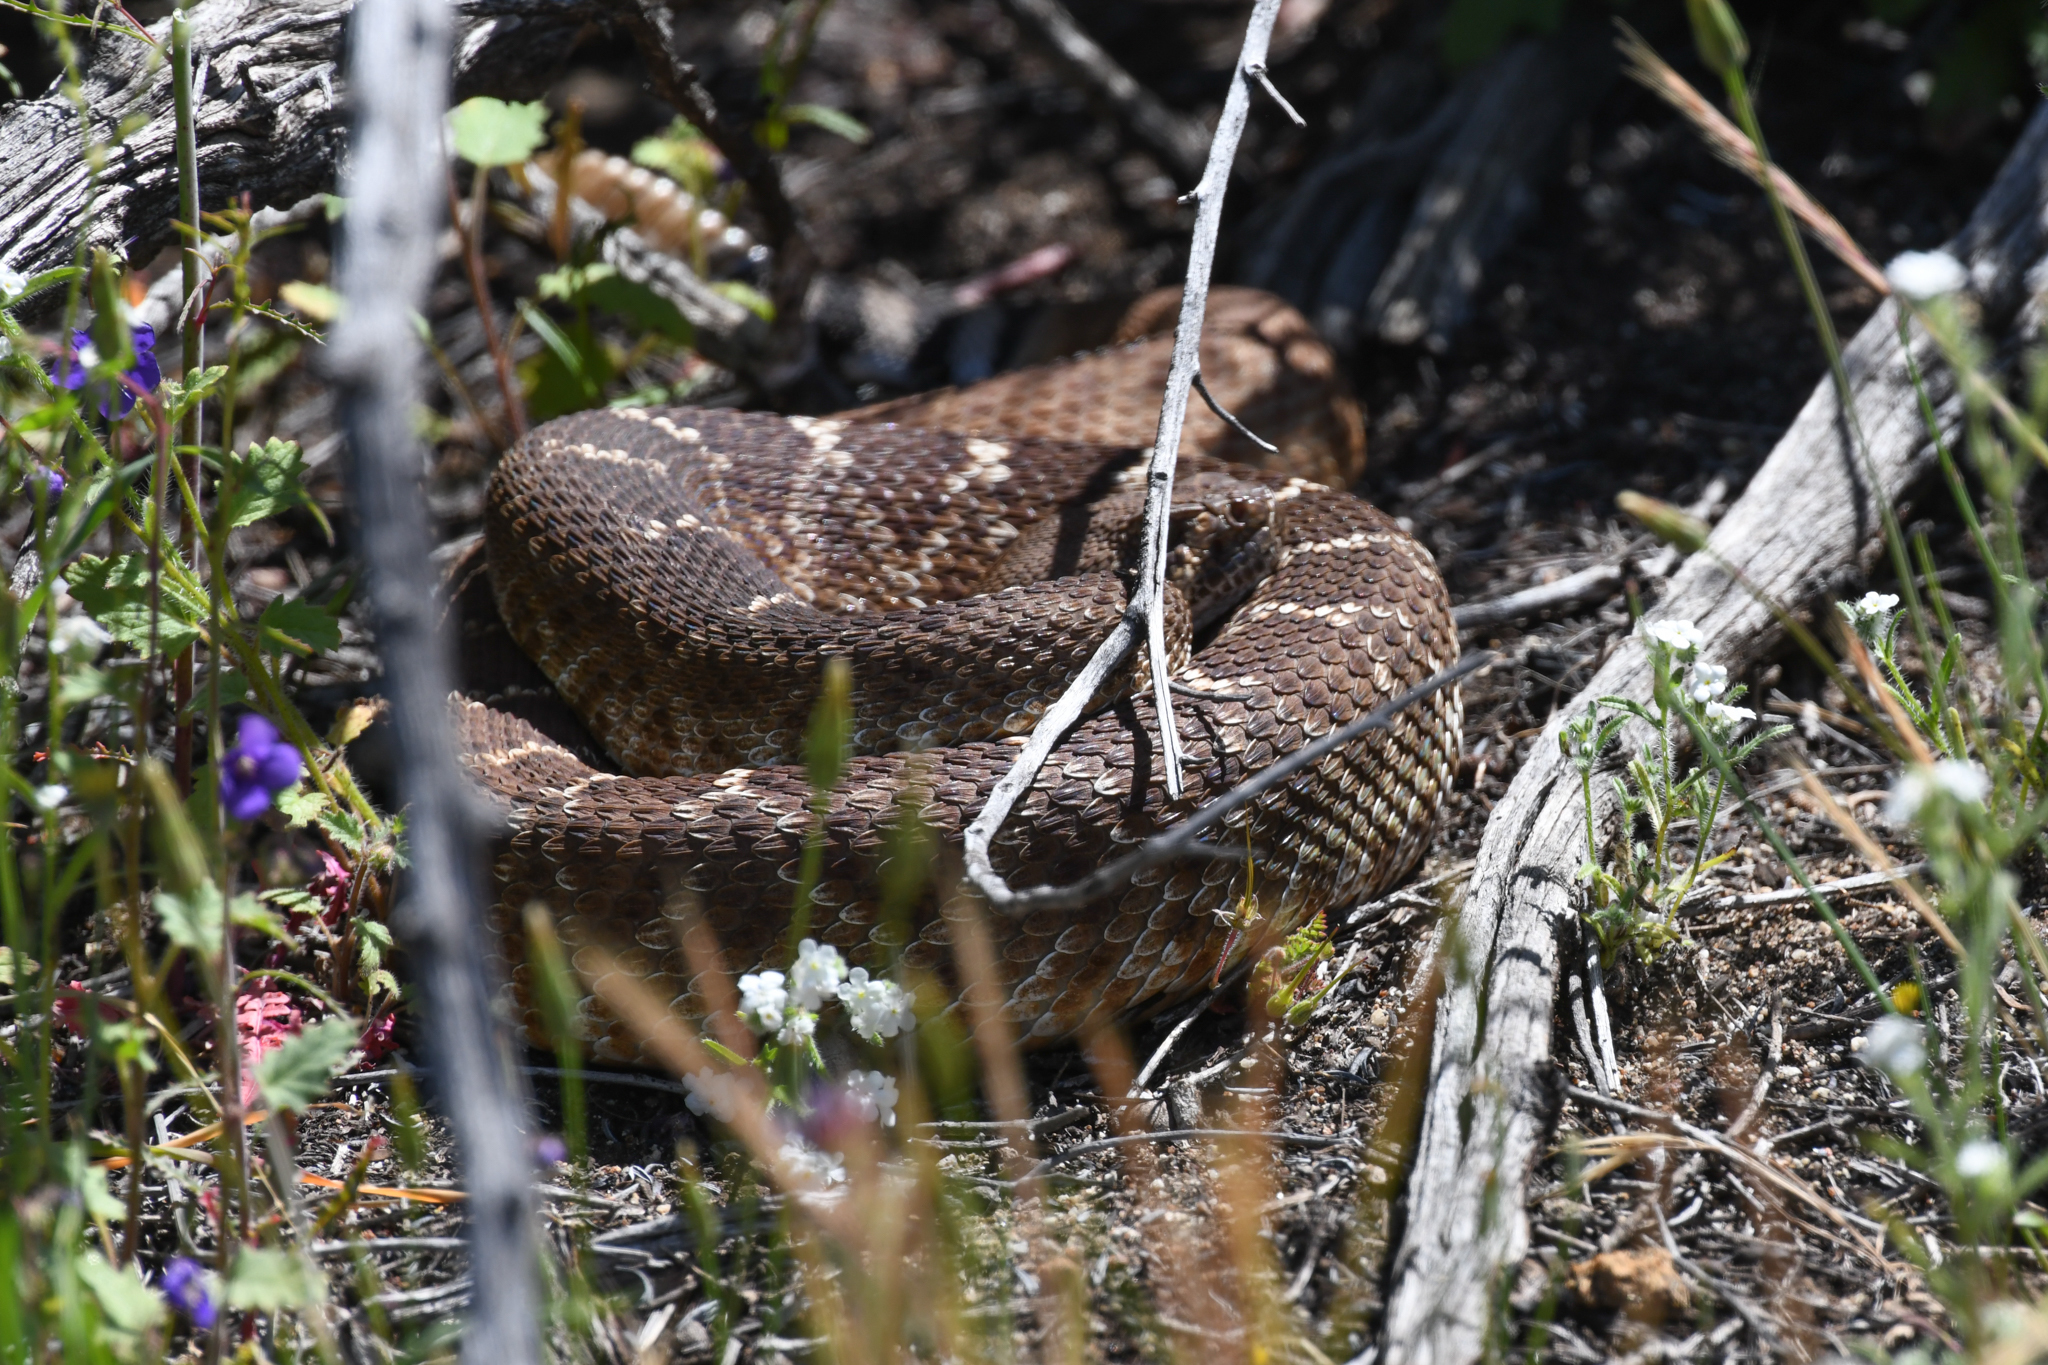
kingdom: Animalia
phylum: Chordata
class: Squamata
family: Viperidae
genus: Crotalus
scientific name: Crotalus ruber
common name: Red diamond rattlesnake
